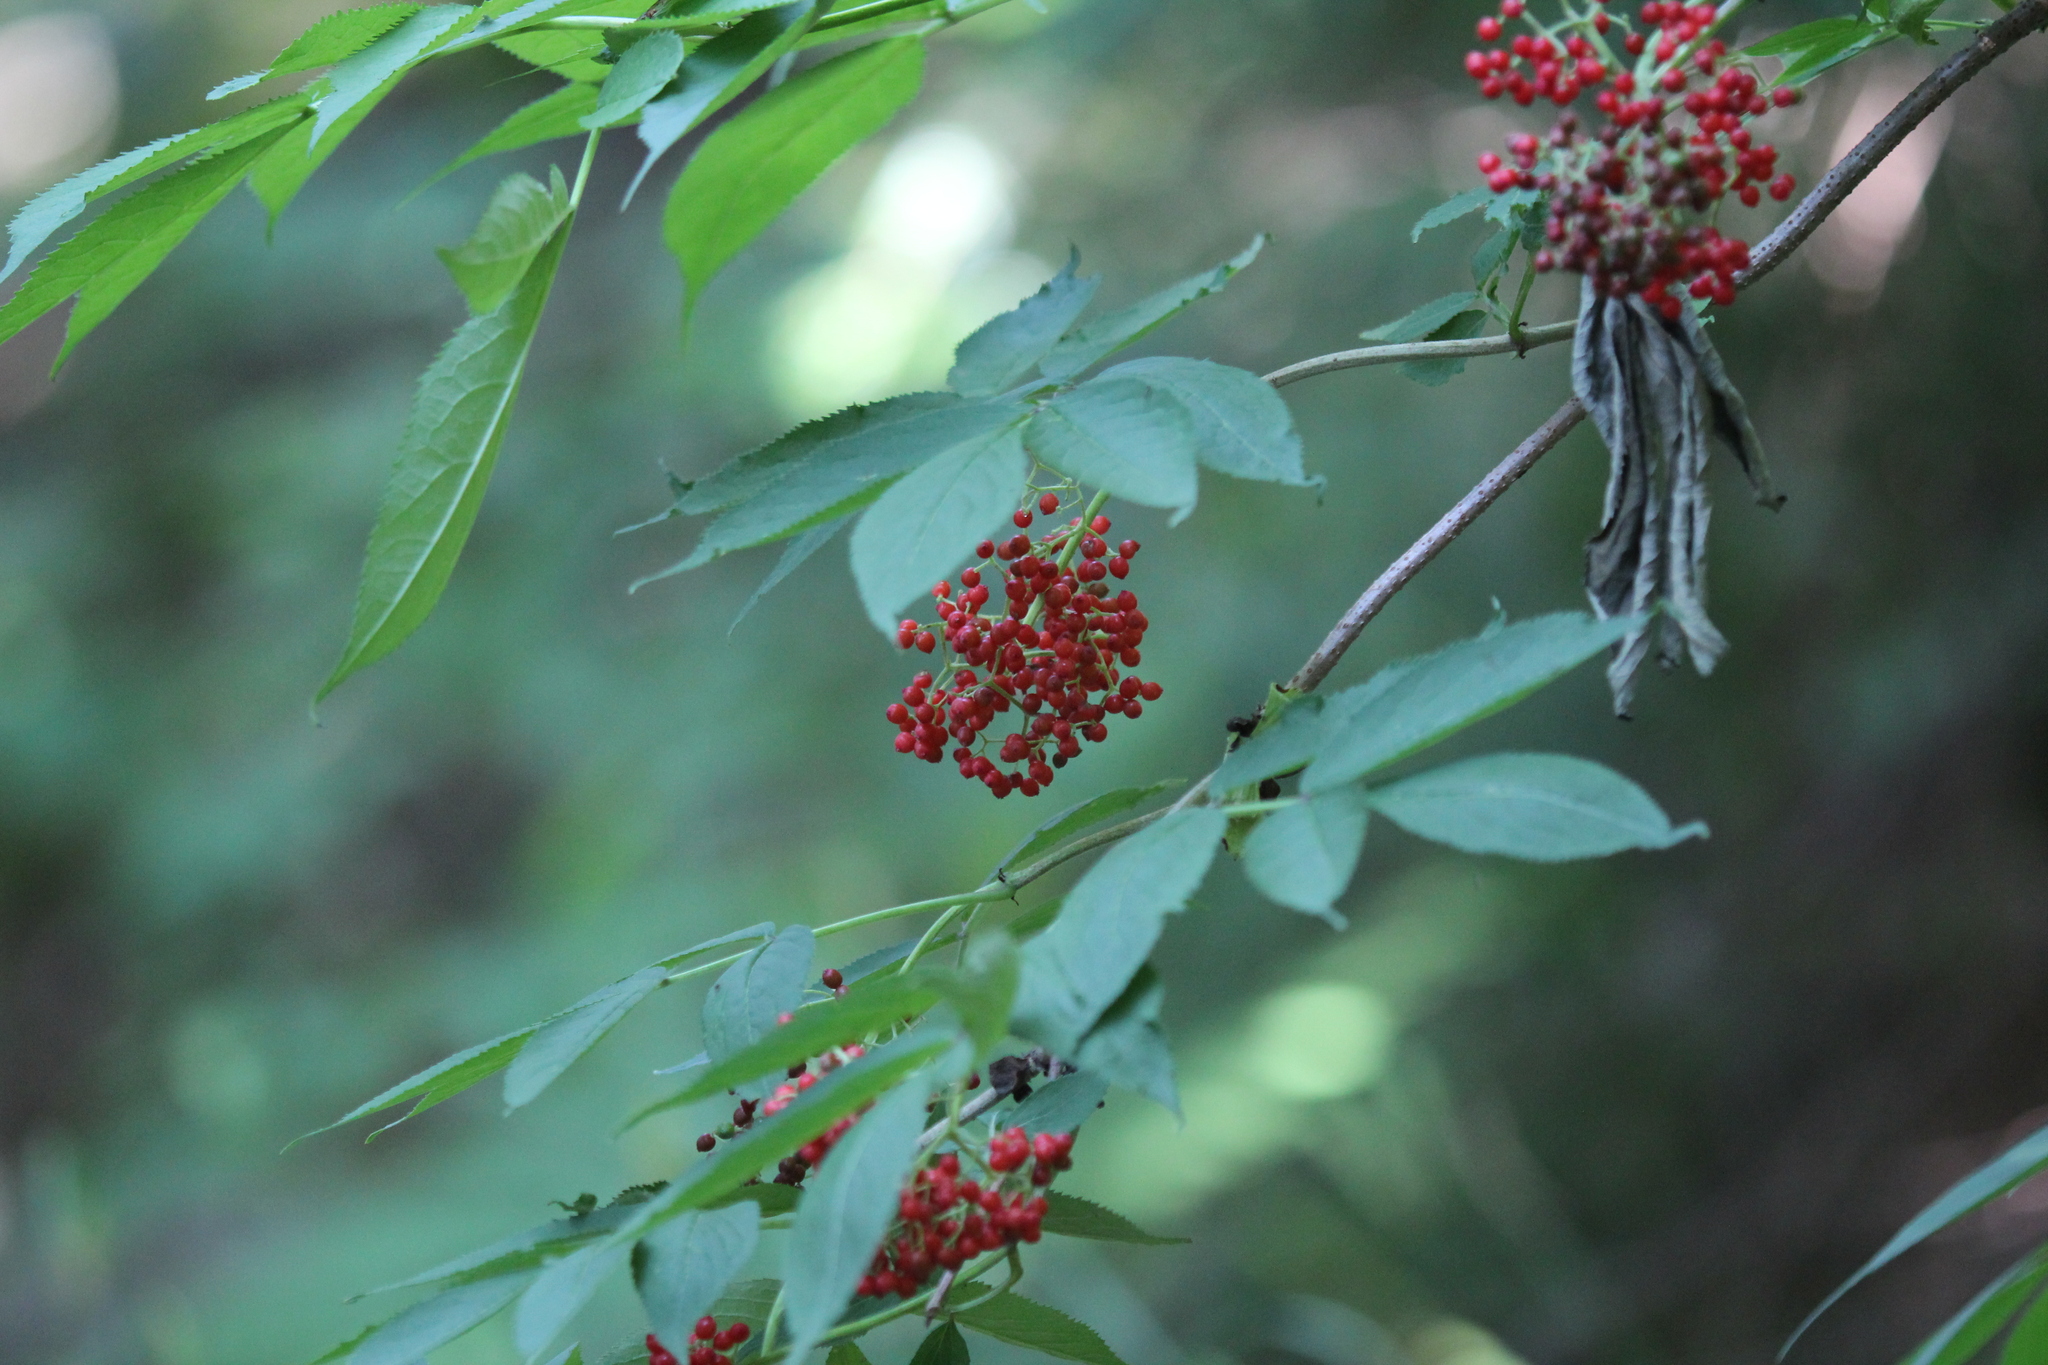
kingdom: Plantae
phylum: Tracheophyta
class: Magnoliopsida
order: Dipsacales
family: Viburnaceae
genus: Sambucus
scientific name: Sambucus racemosa
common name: Red-berried elder
